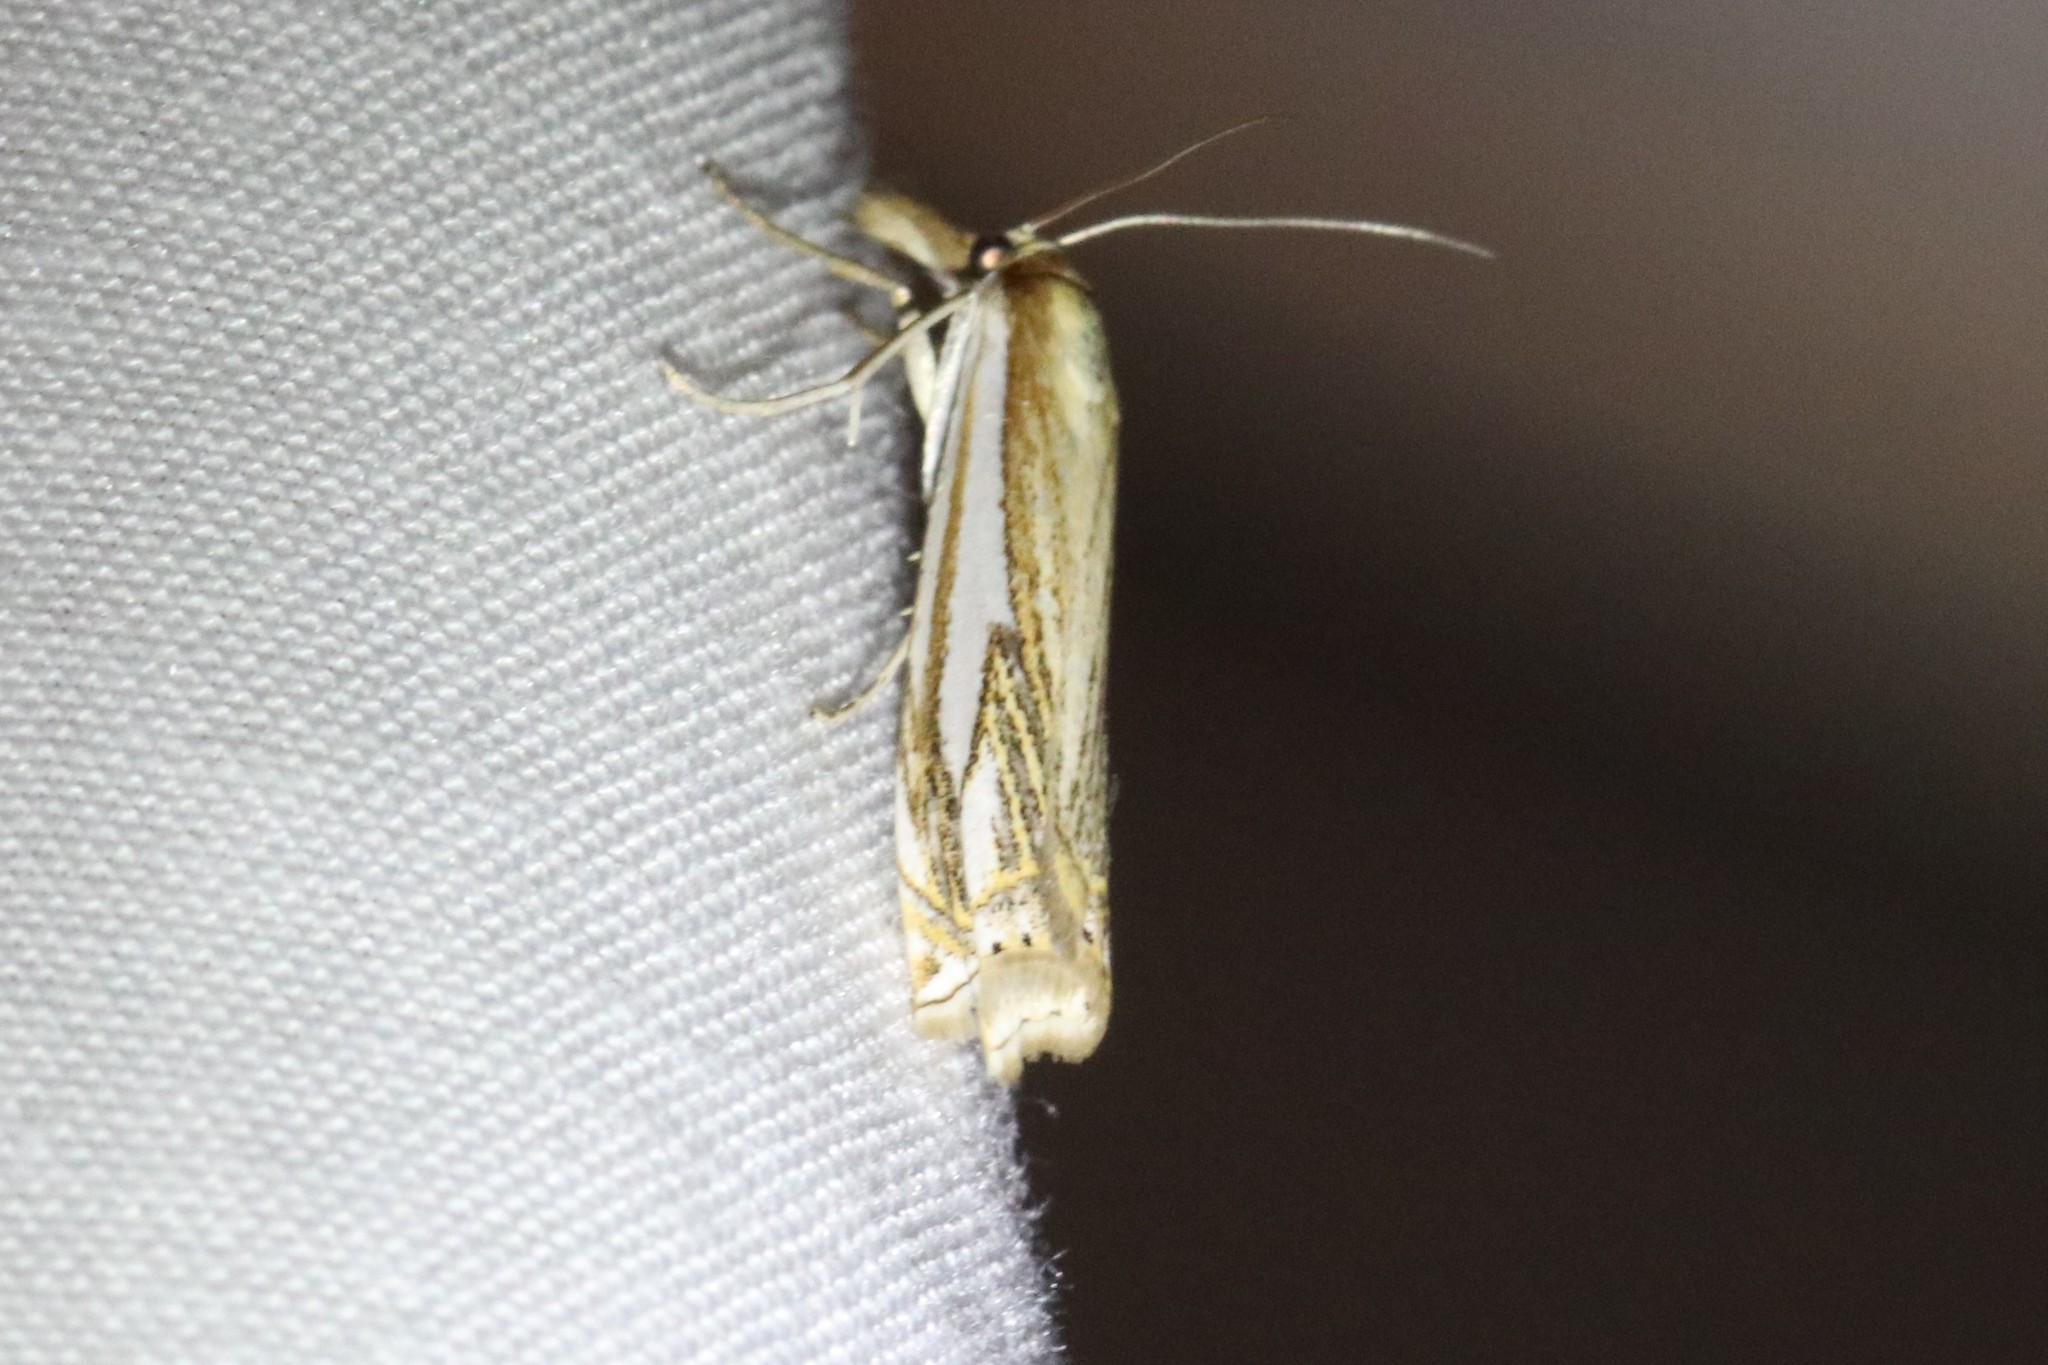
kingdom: Animalia
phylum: Arthropoda
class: Insecta
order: Lepidoptera
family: Crambidae
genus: Crambus
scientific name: Crambus saltuellus
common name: Pasture grass-veneer
